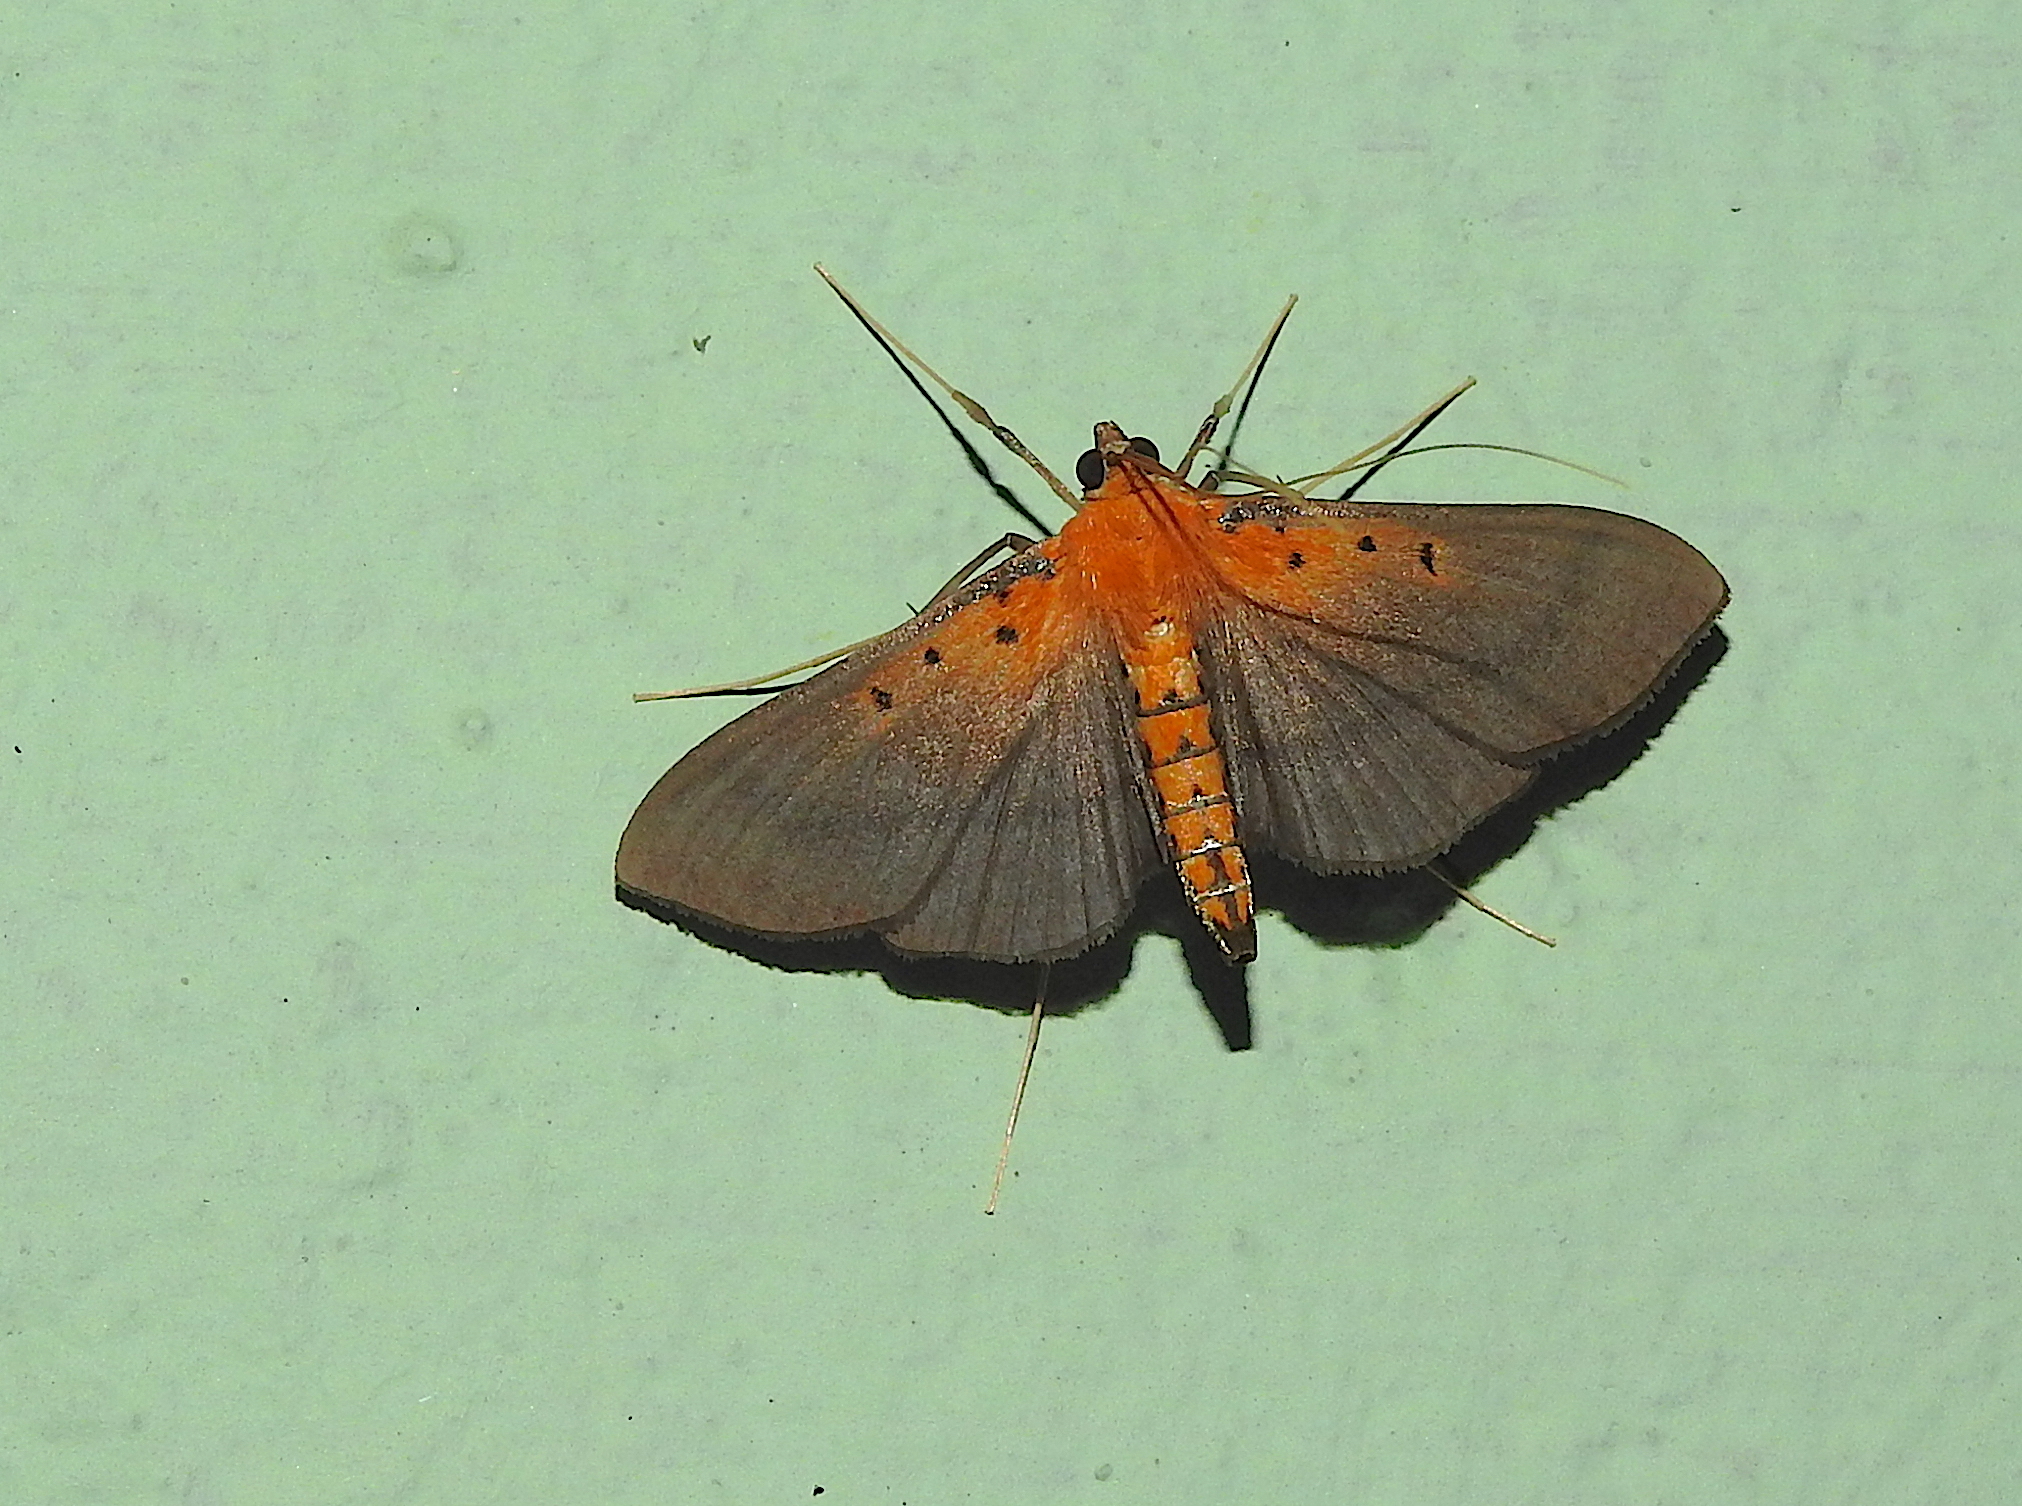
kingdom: Animalia
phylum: Arthropoda
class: Insecta
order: Lepidoptera
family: Crambidae
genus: Filodes
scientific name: Filodes fulvidorsalis
